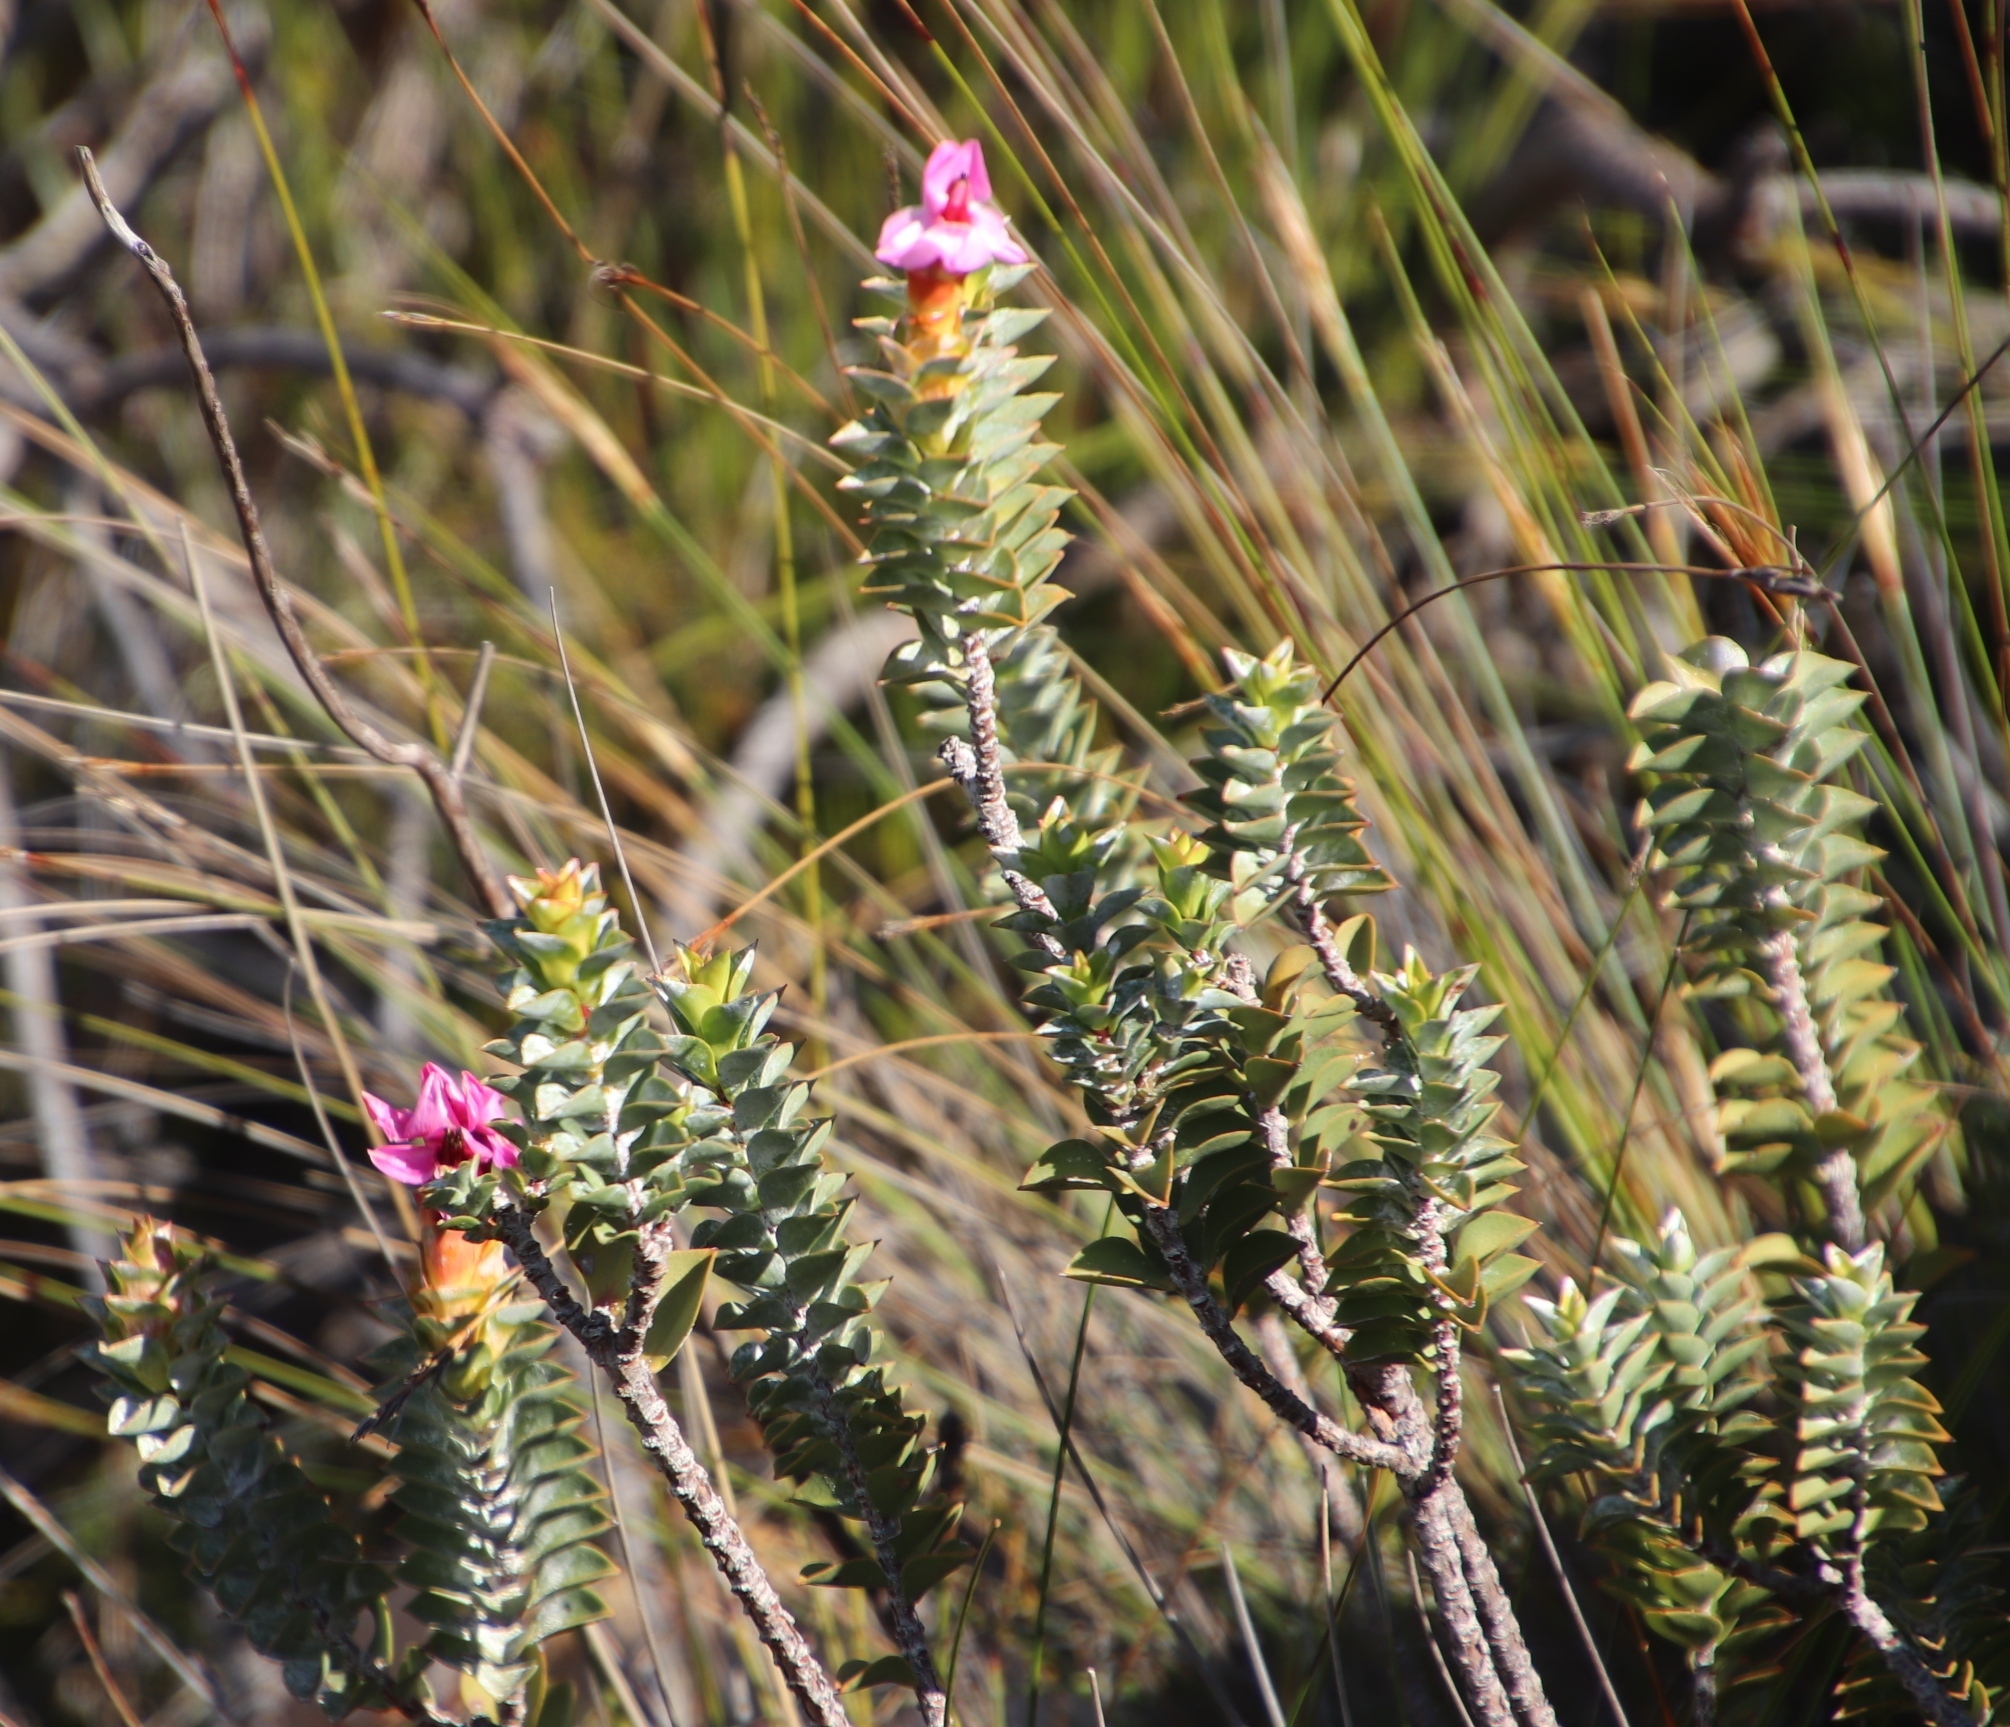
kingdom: Plantae
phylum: Tracheophyta
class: Magnoliopsida
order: Myrtales
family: Penaeaceae
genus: Saltera
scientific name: Saltera sarcocolla
